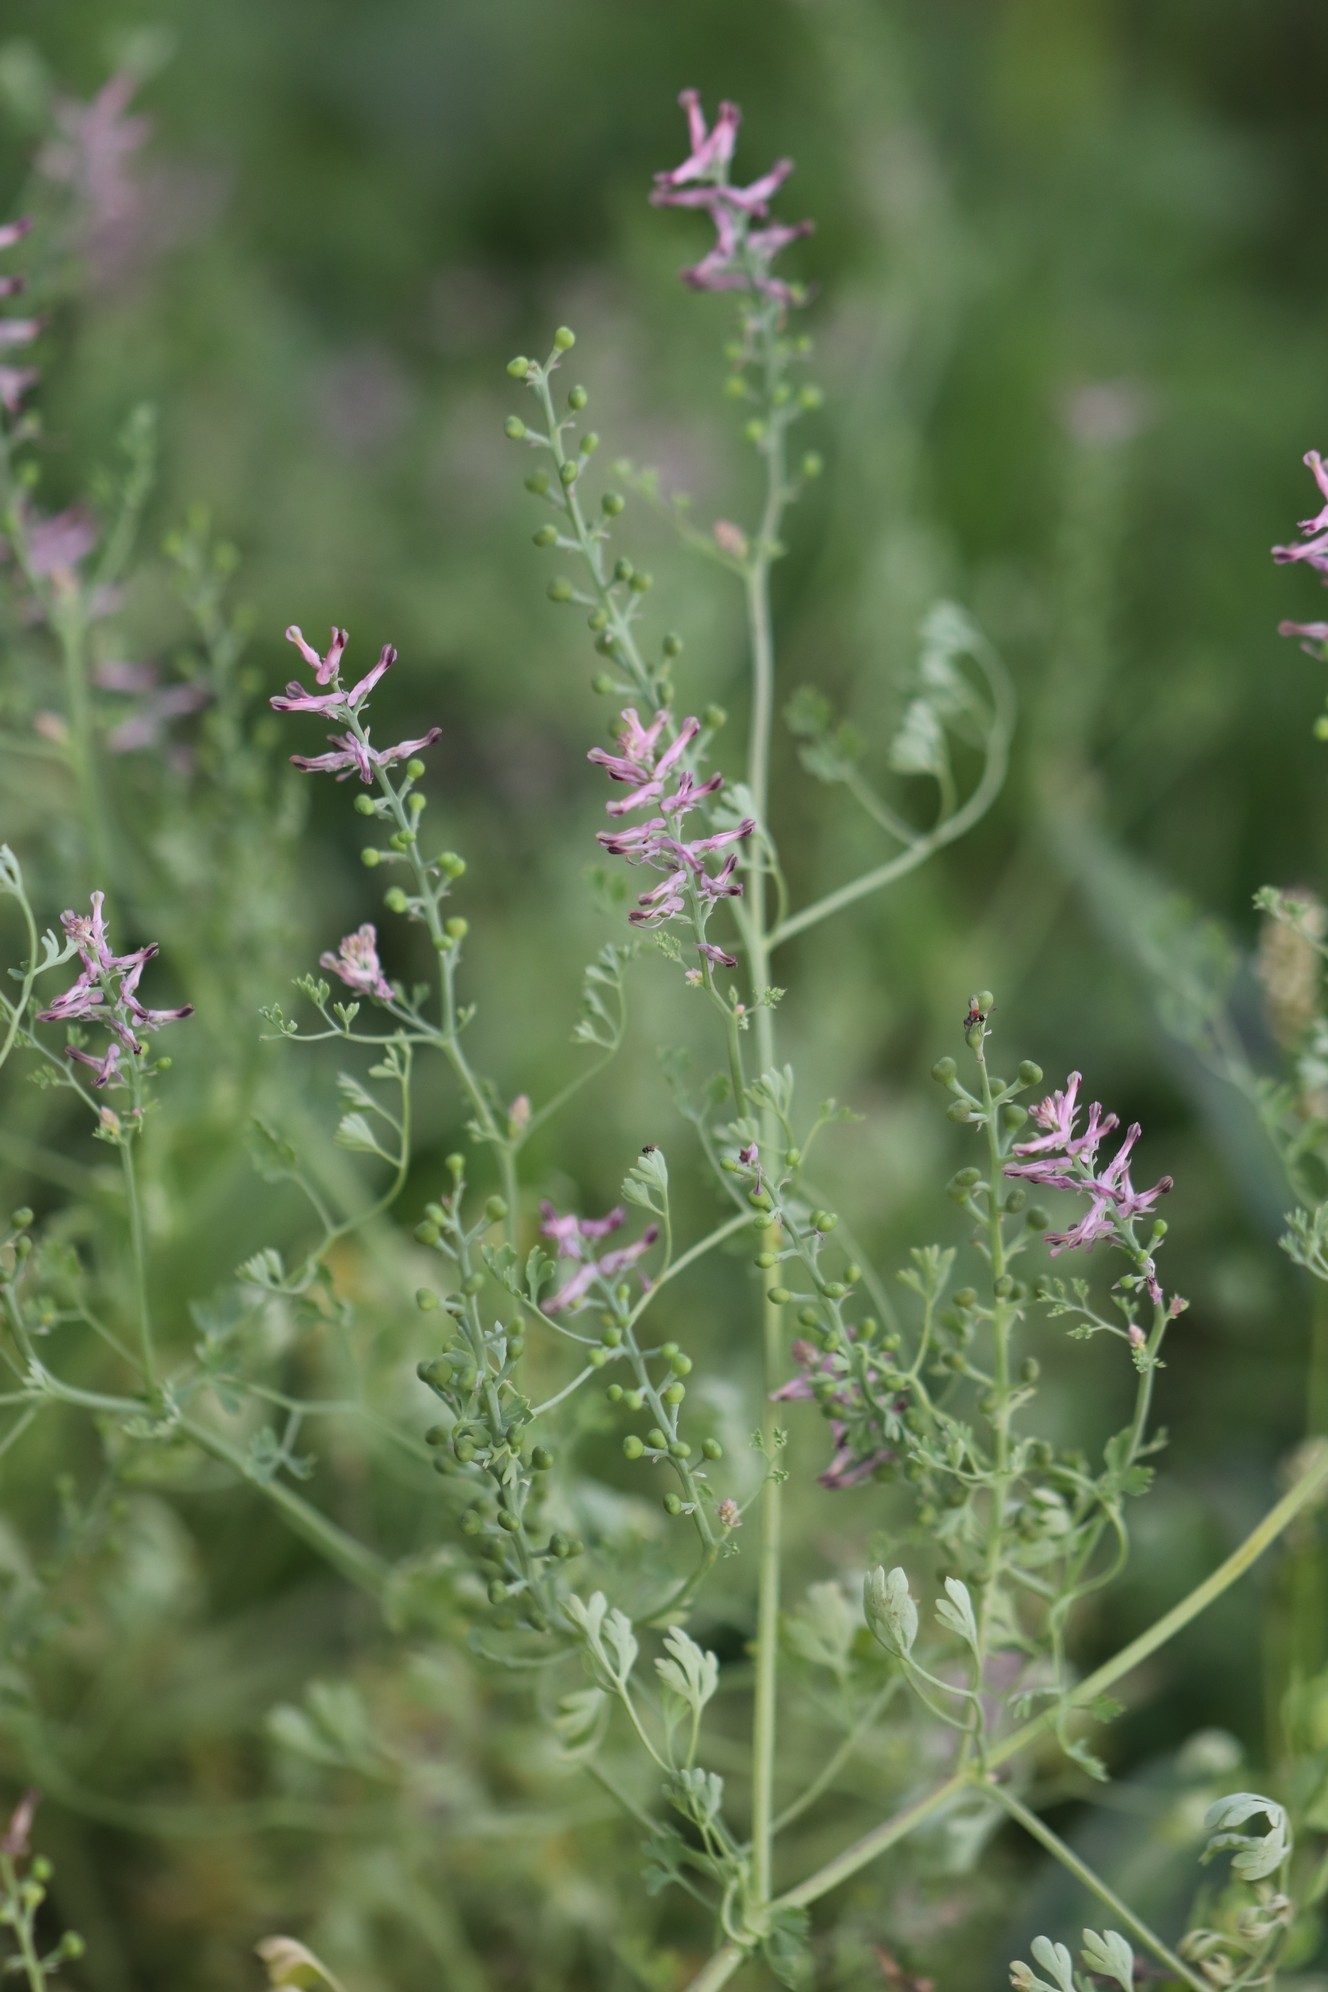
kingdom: Plantae
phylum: Tracheophyta
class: Magnoliopsida
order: Ranunculales
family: Papaveraceae
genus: Fumaria
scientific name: Fumaria officinalis
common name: Common fumitory
